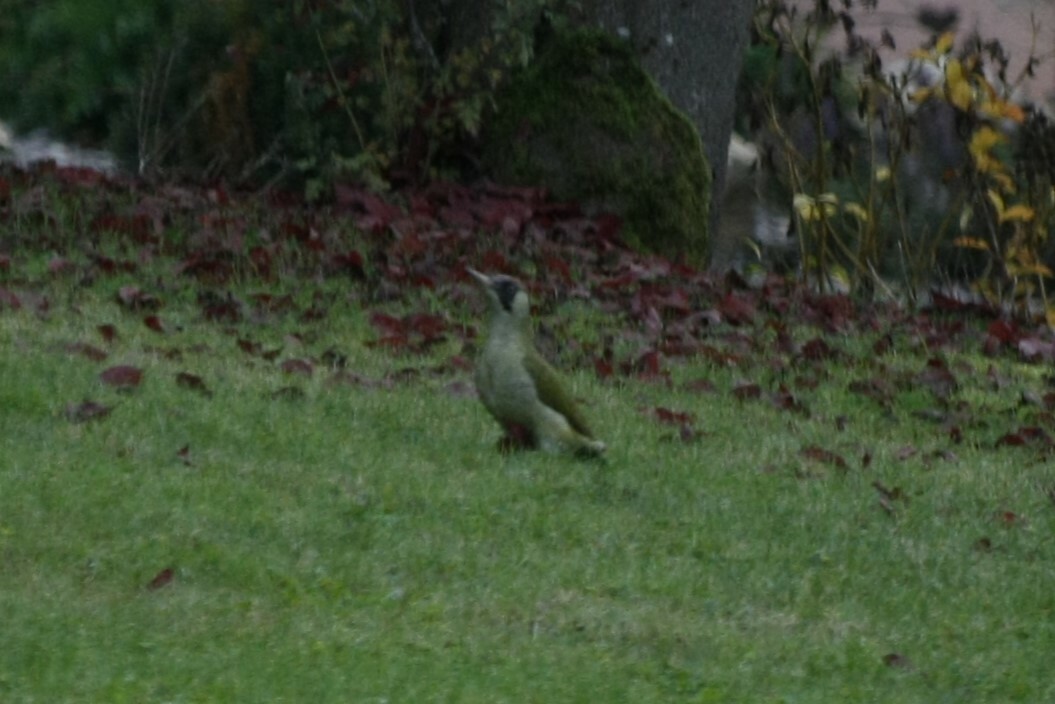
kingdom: Animalia
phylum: Chordata
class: Aves
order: Piciformes
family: Picidae
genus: Picus
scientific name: Picus viridis
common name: European green woodpecker
